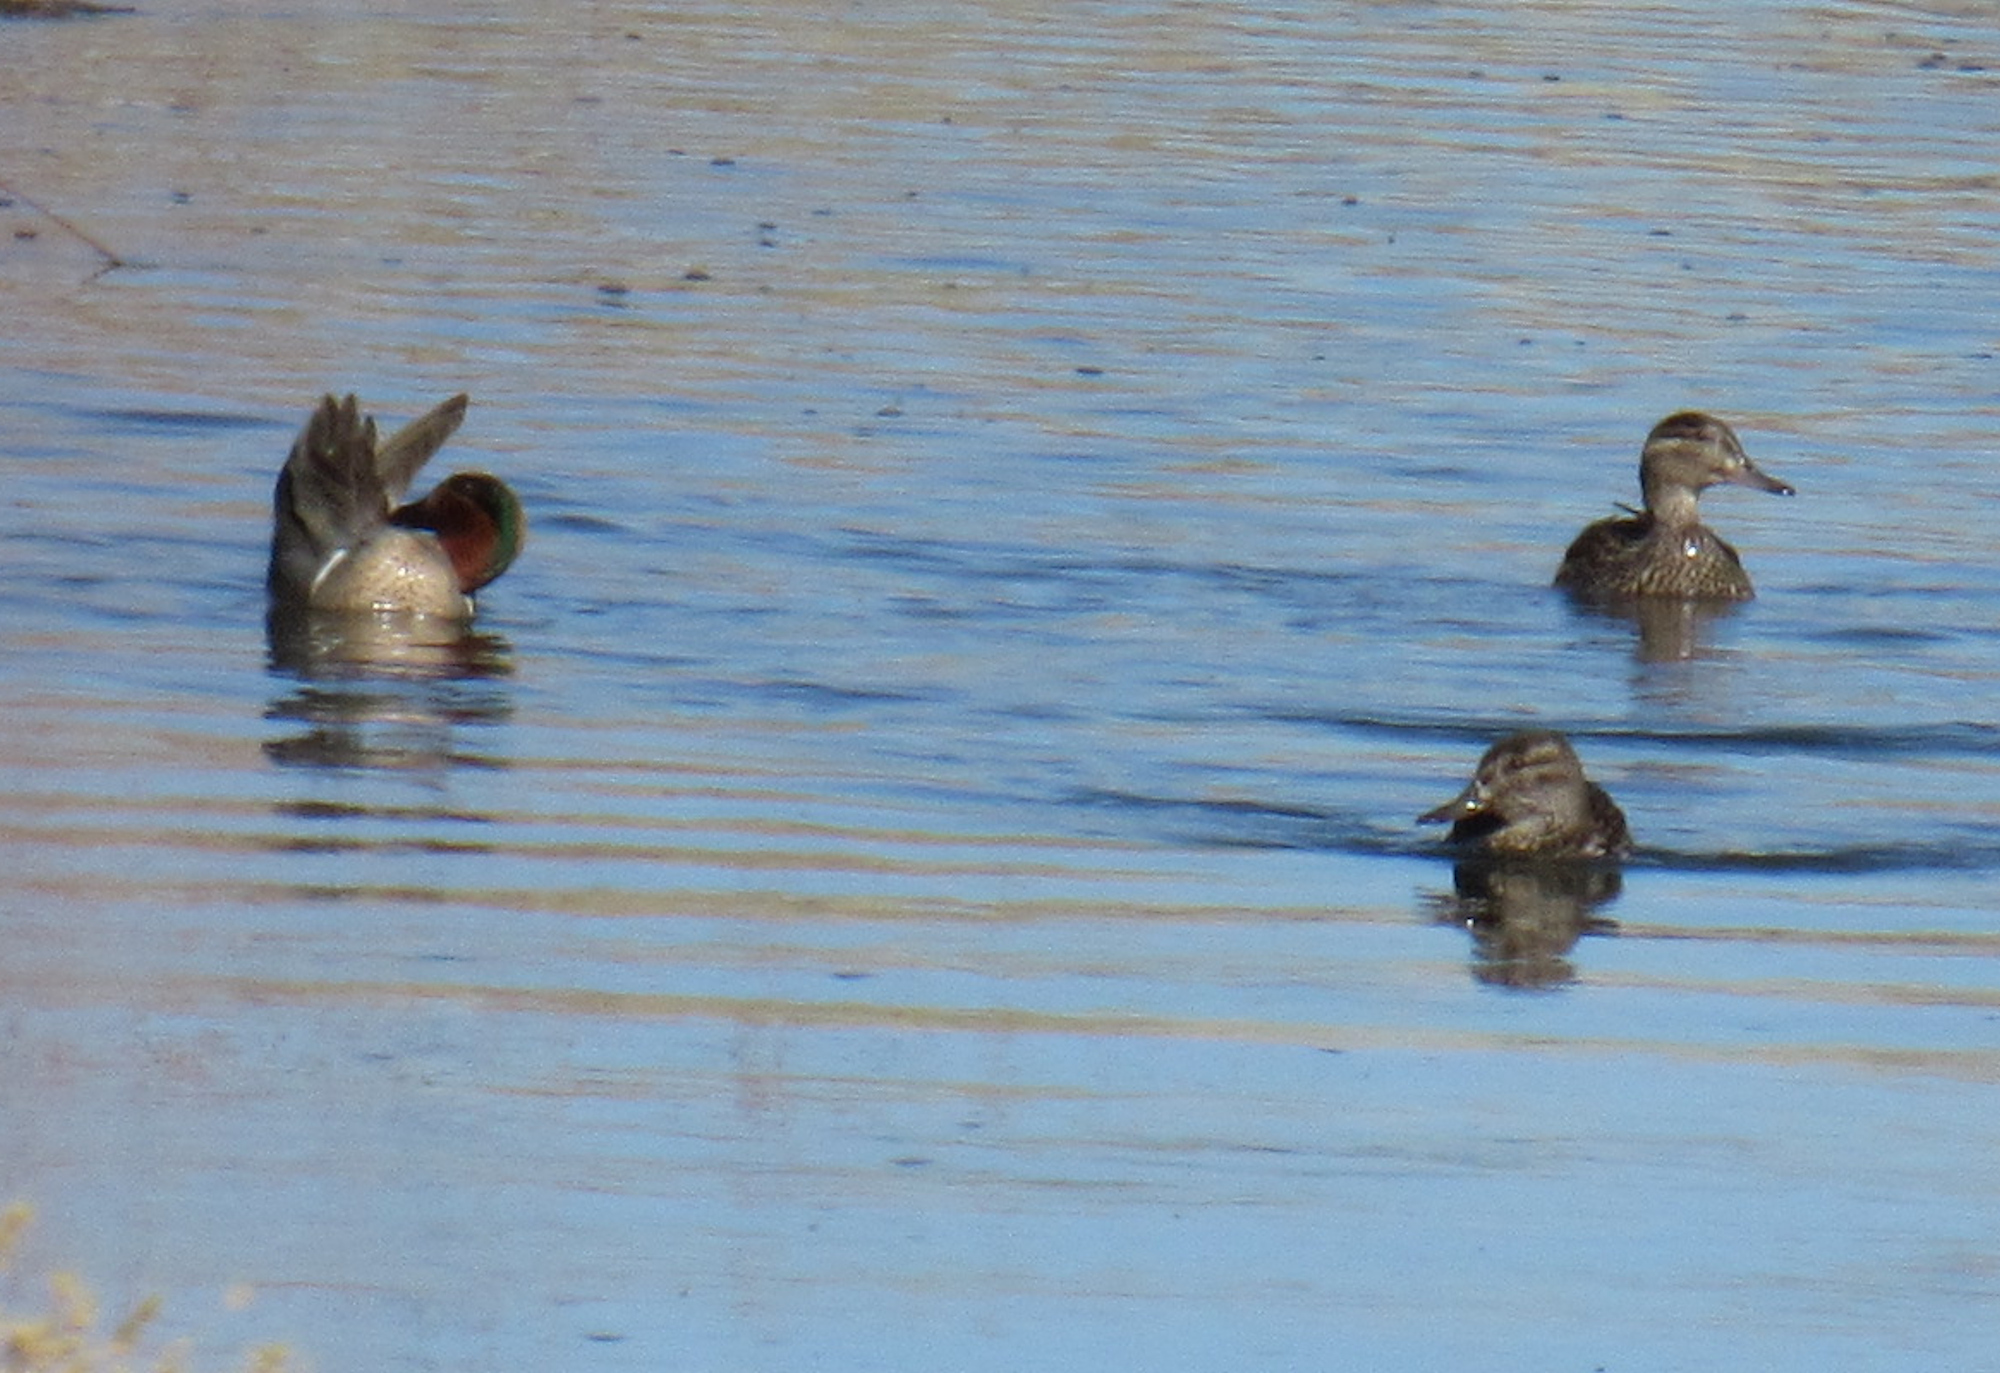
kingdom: Animalia
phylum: Chordata
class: Aves
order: Anseriformes
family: Anatidae
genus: Anas
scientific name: Anas crecca
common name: Eurasian teal
